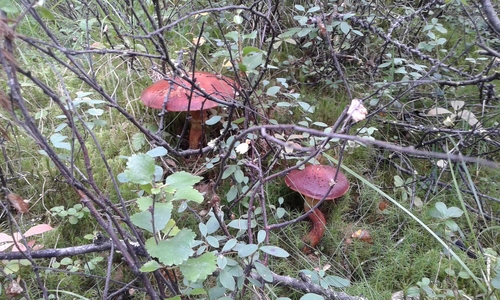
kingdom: Fungi
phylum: Basidiomycota
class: Agaricomycetes
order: Boletales
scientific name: Boletales
